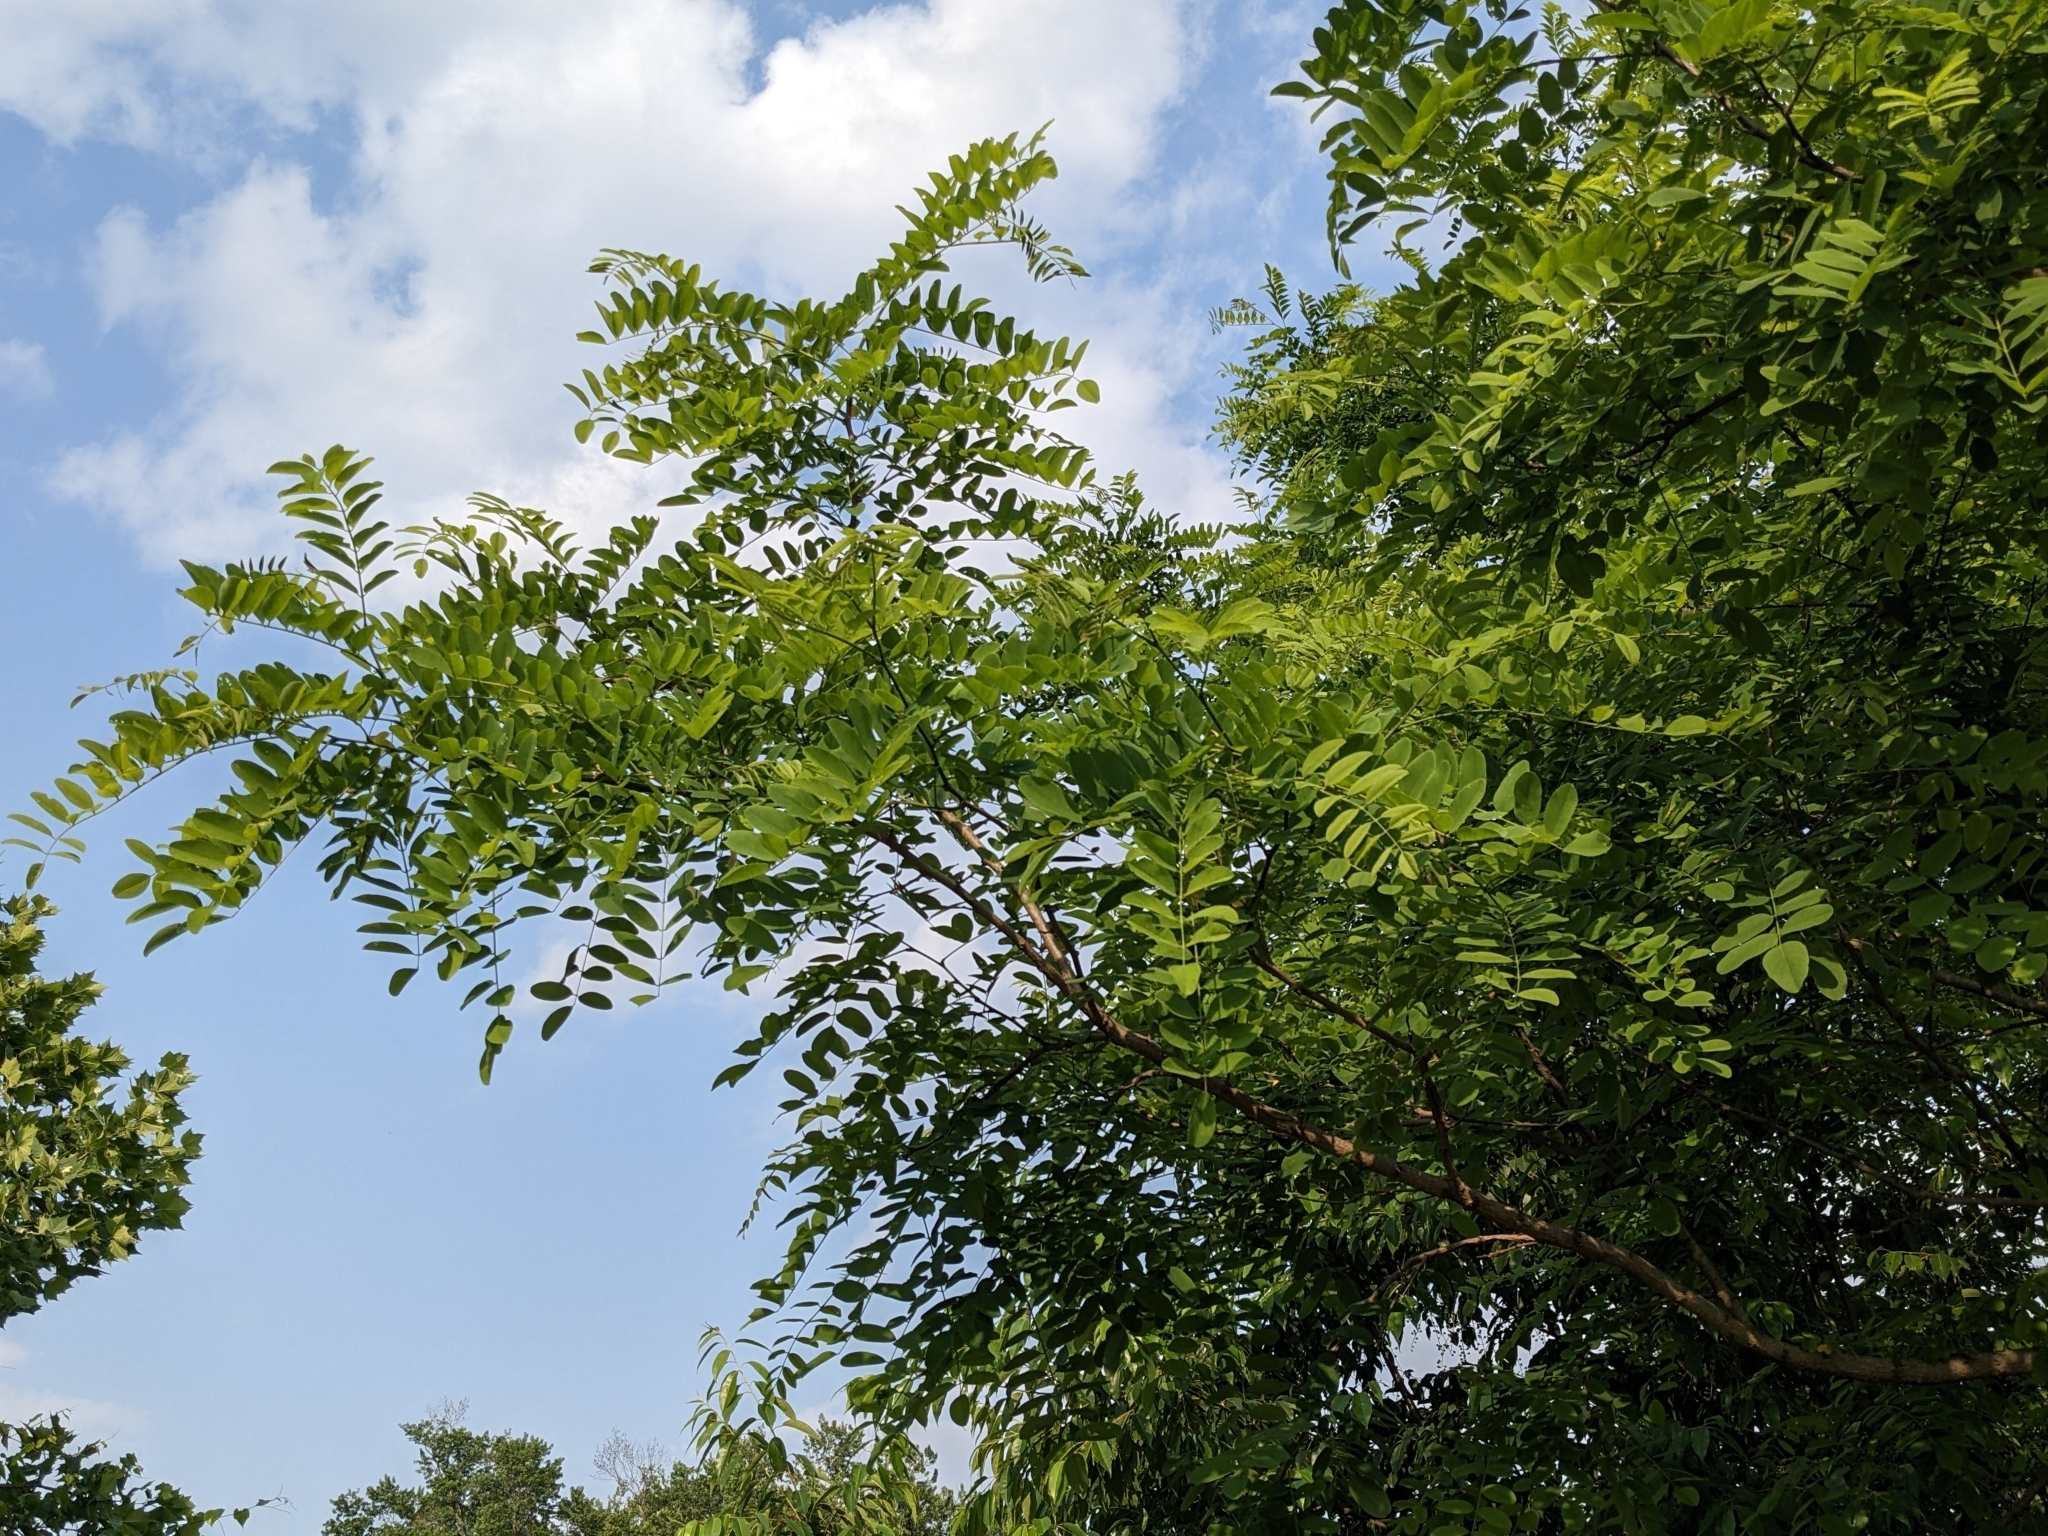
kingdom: Plantae
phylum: Tracheophyta
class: Magnoliopsida
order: Fabales
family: Fabaceae
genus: Robinia
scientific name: Robinia pseudoacacia
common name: Black locust
